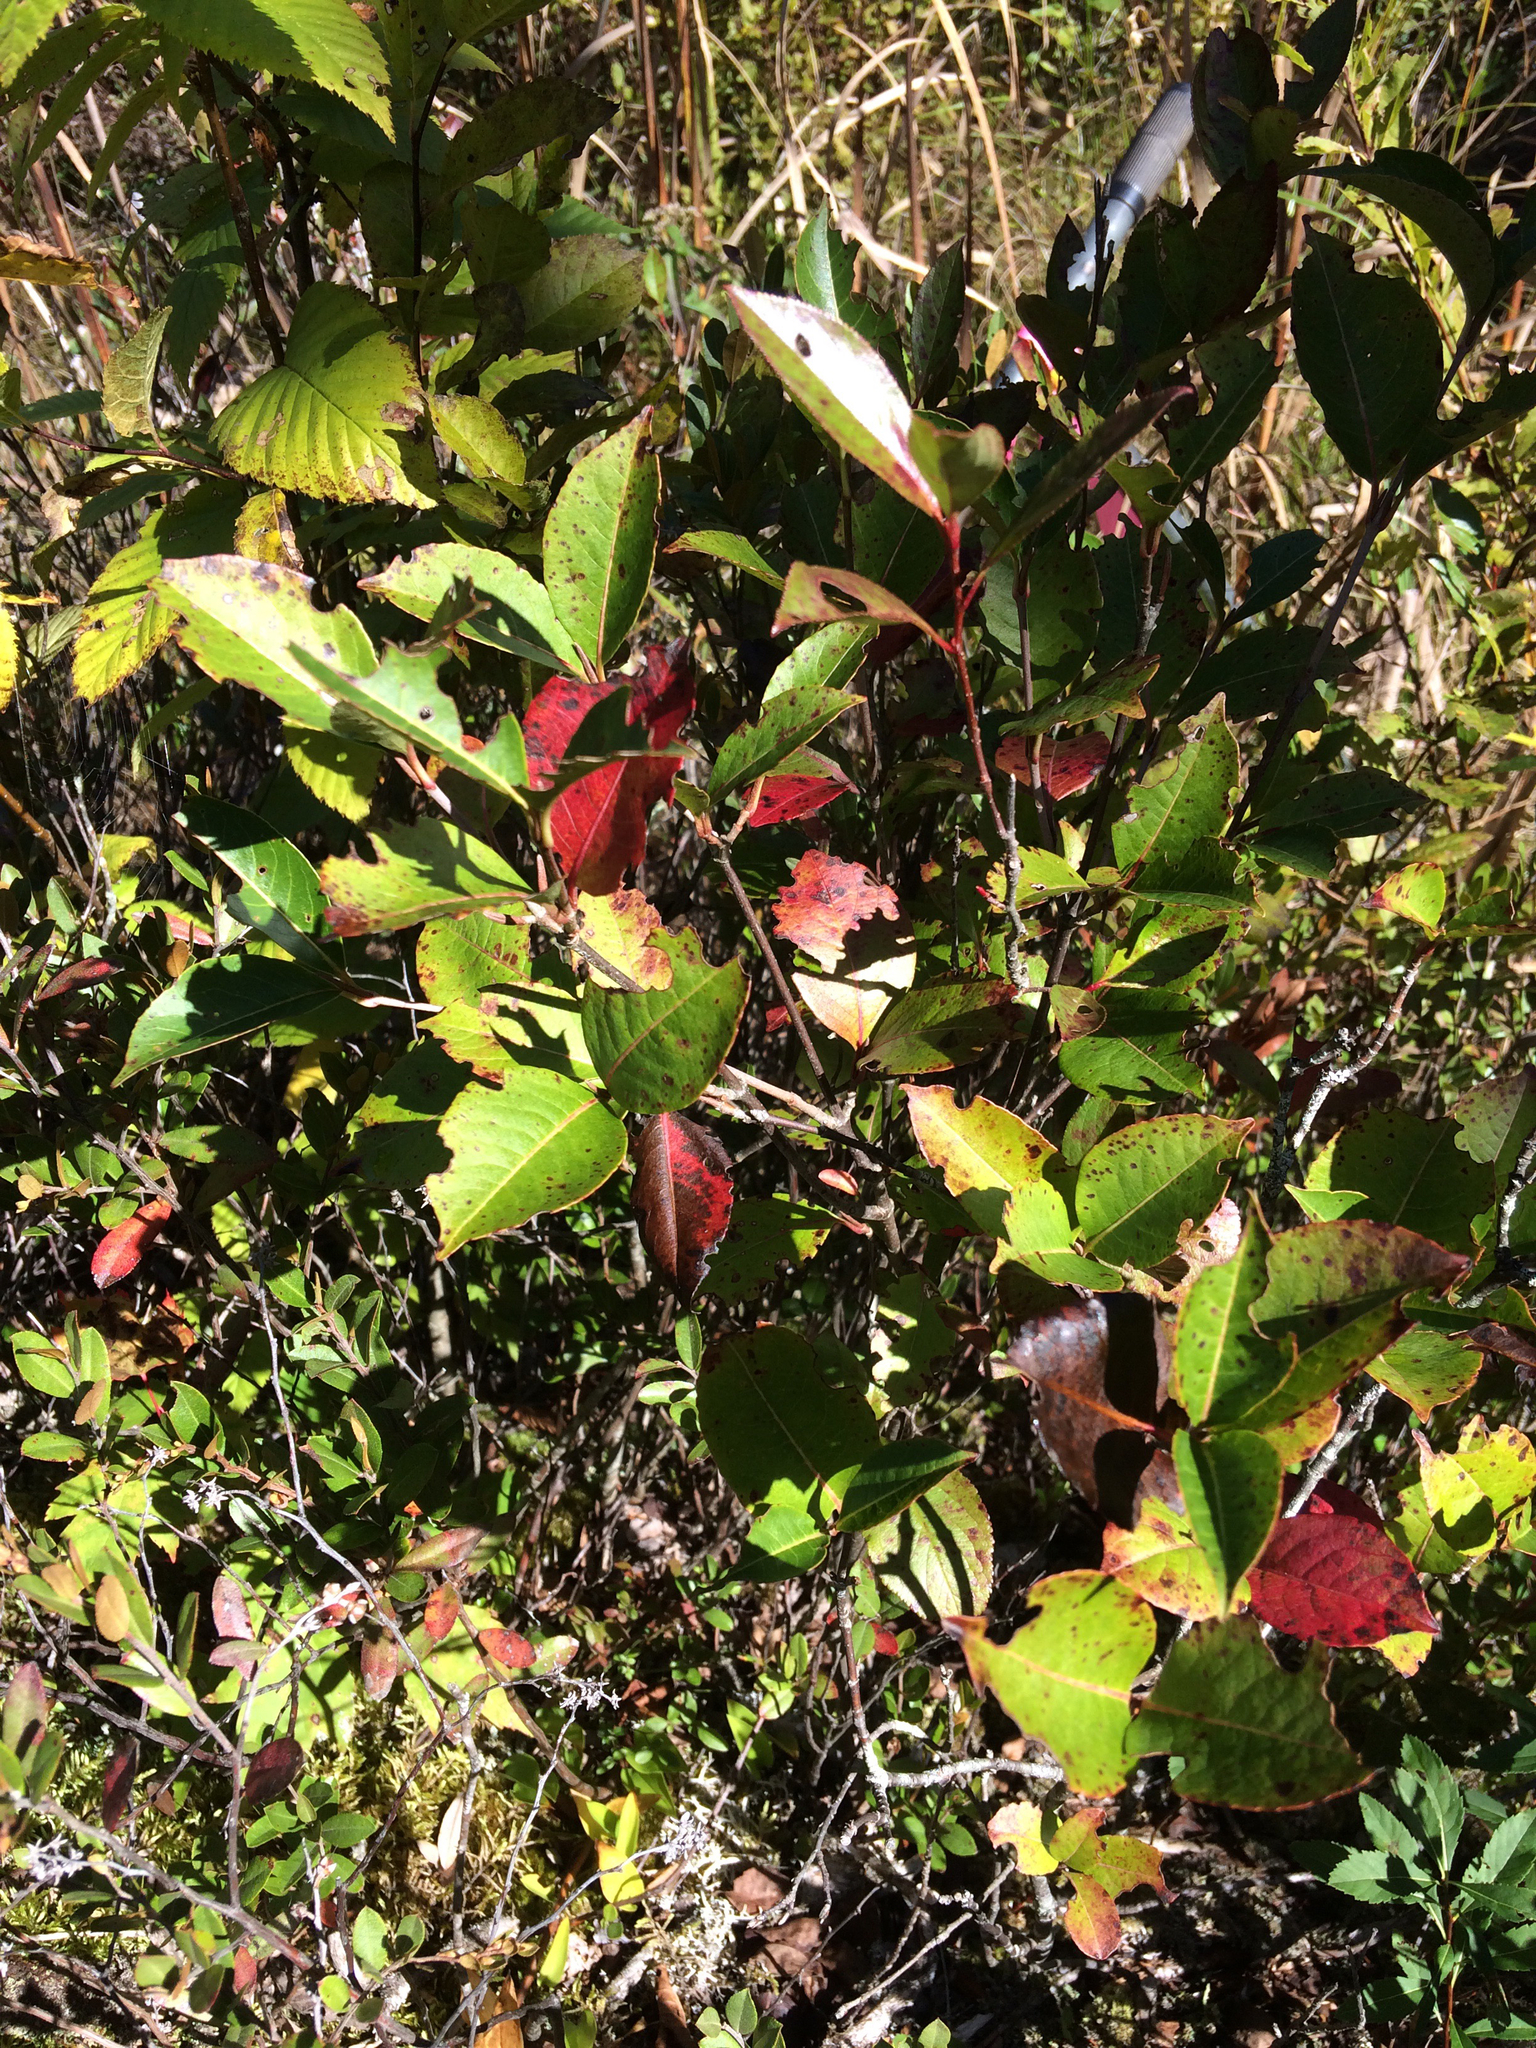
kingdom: Plantae
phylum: Tracheophyta
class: Magnoliopsida
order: Dipsacales
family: Viburnaceae
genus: Viburnum
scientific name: Viburnum cassinoides
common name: Swamp haw
